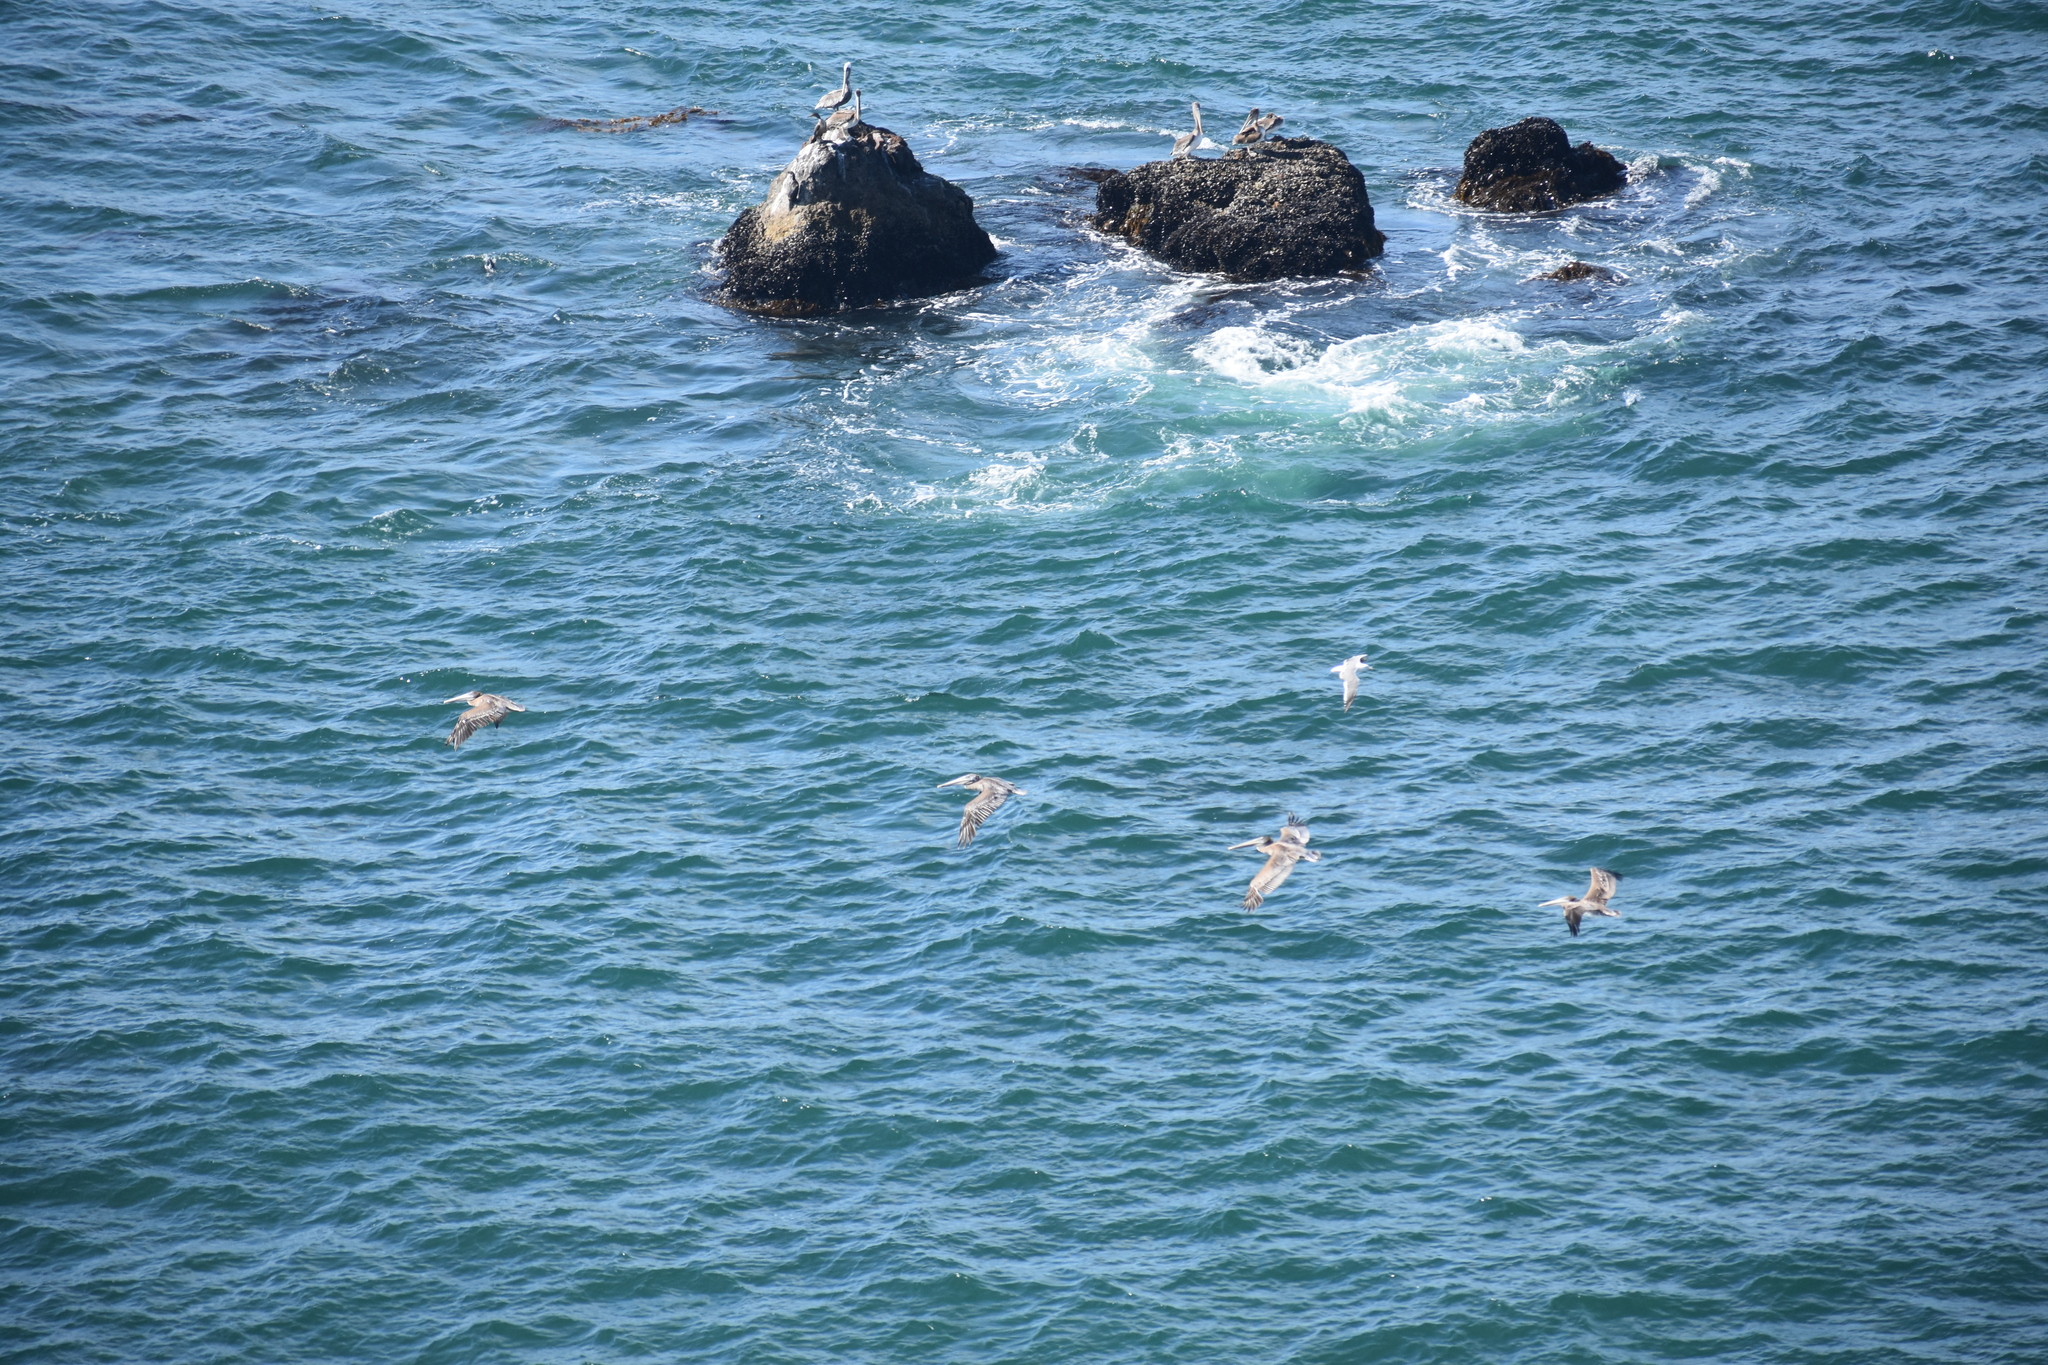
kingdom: Animalia
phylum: Chordata
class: Aves
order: Pelecaniformes
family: Pelecanidae
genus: Pelecanus
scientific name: Pelecanus occidentalis
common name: Brown pelican
